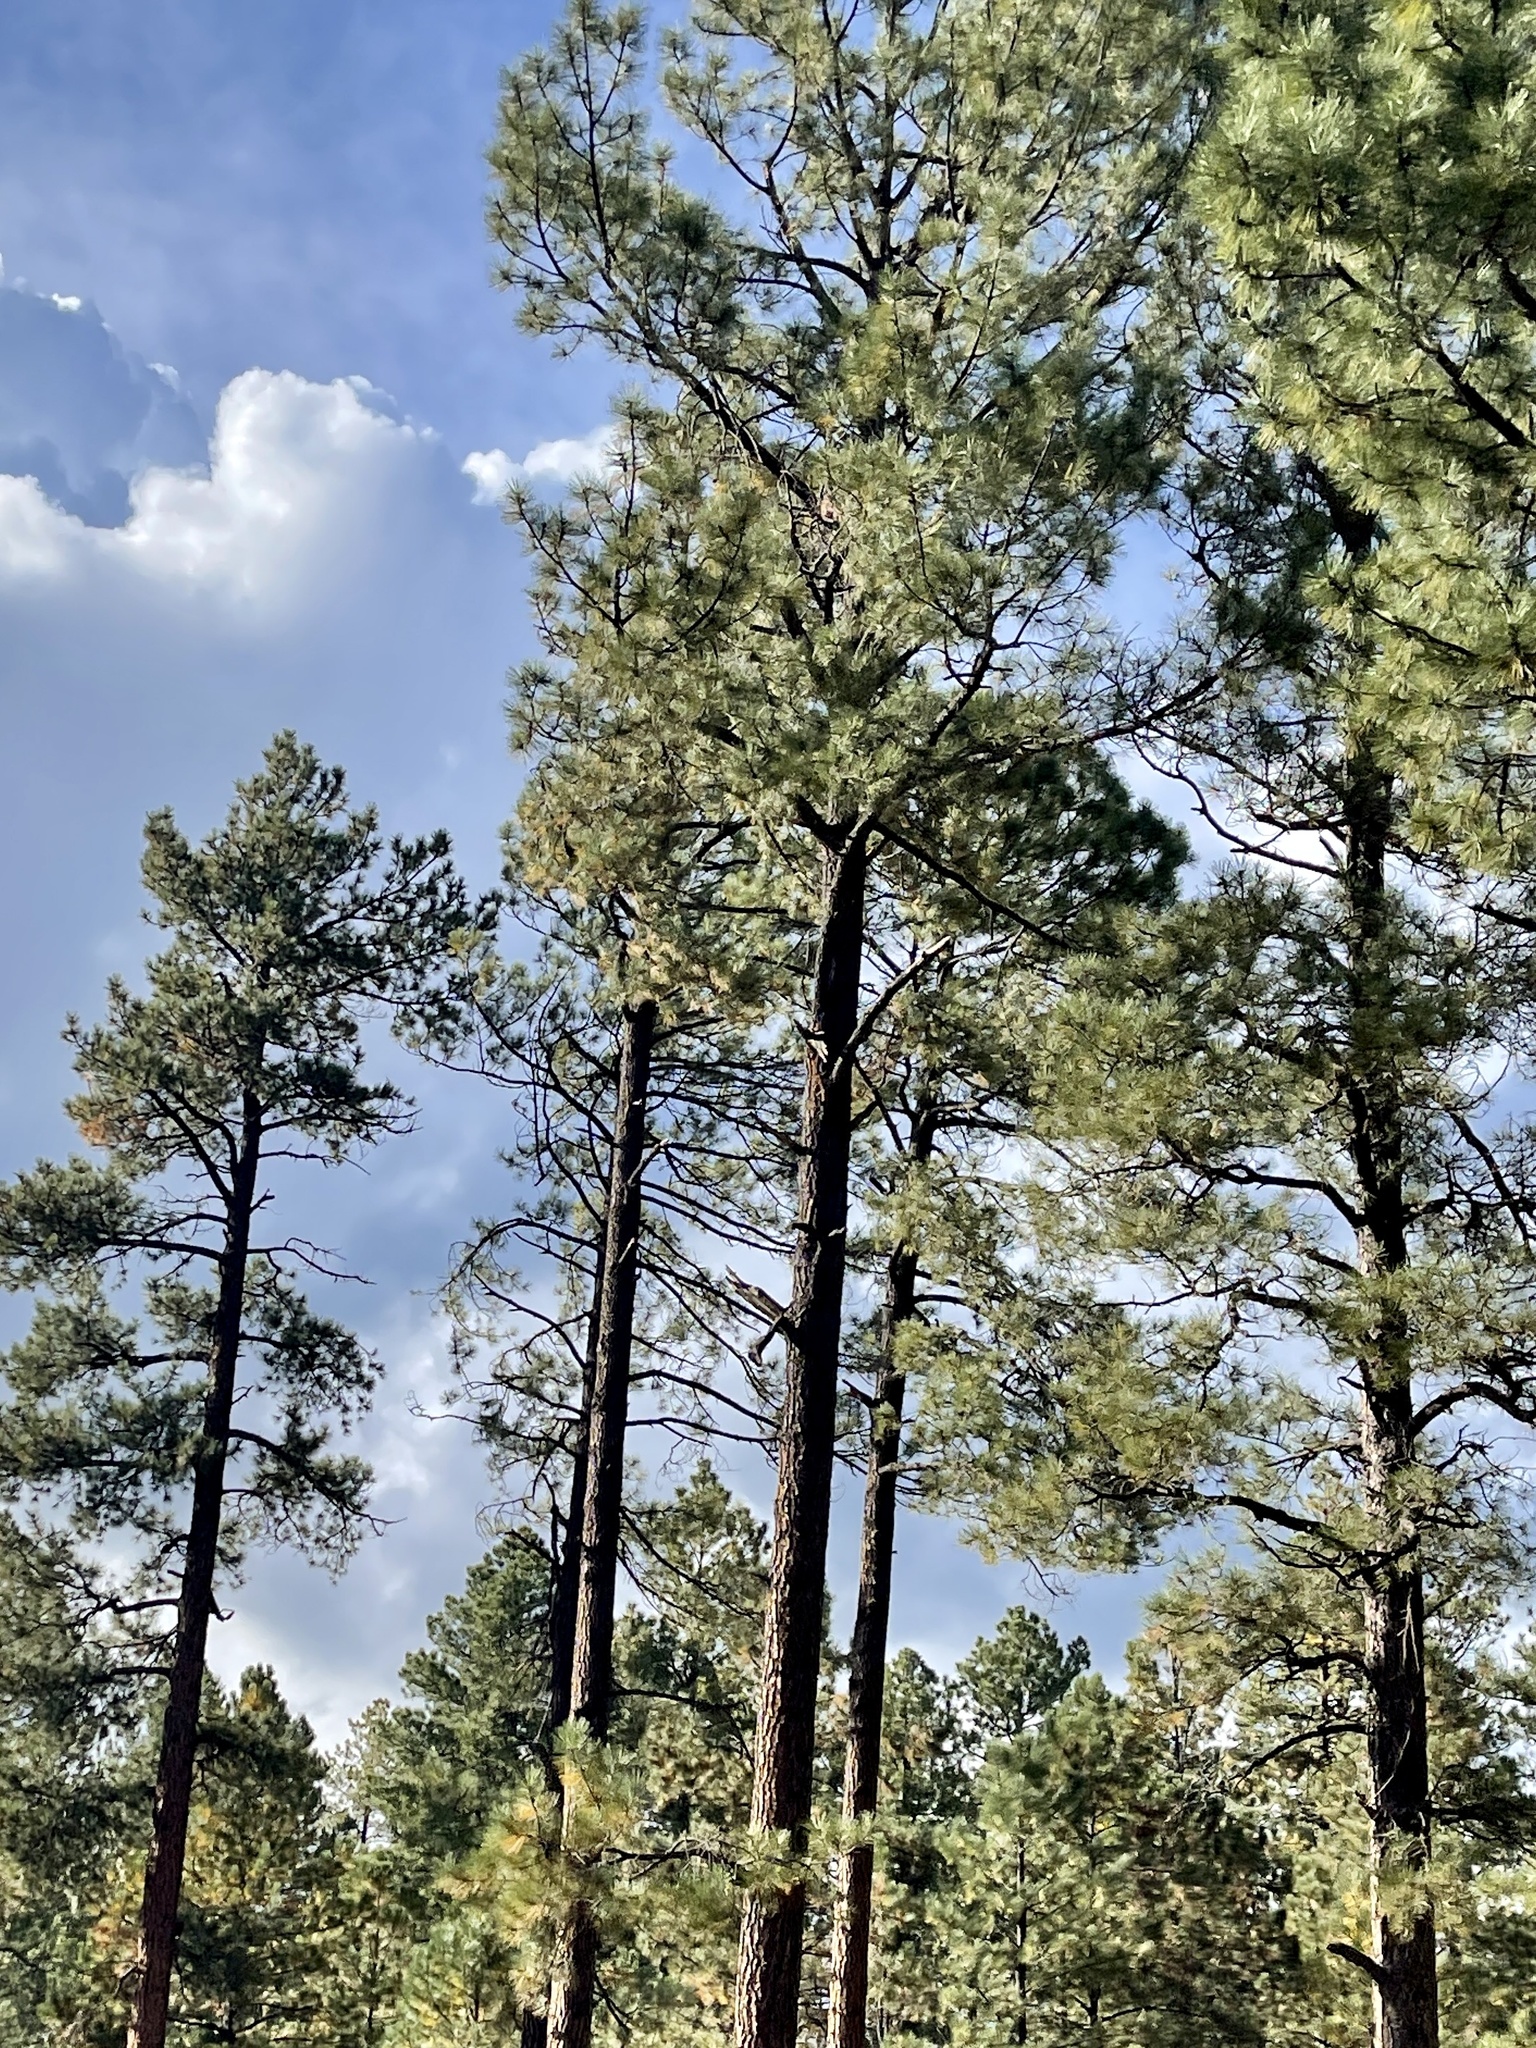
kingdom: Plantae
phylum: Tracheophyta
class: Pinopsida
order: Pinales
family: Pinaceae
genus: Pinus
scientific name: Pinus ponderosa
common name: Western yellow-pine
